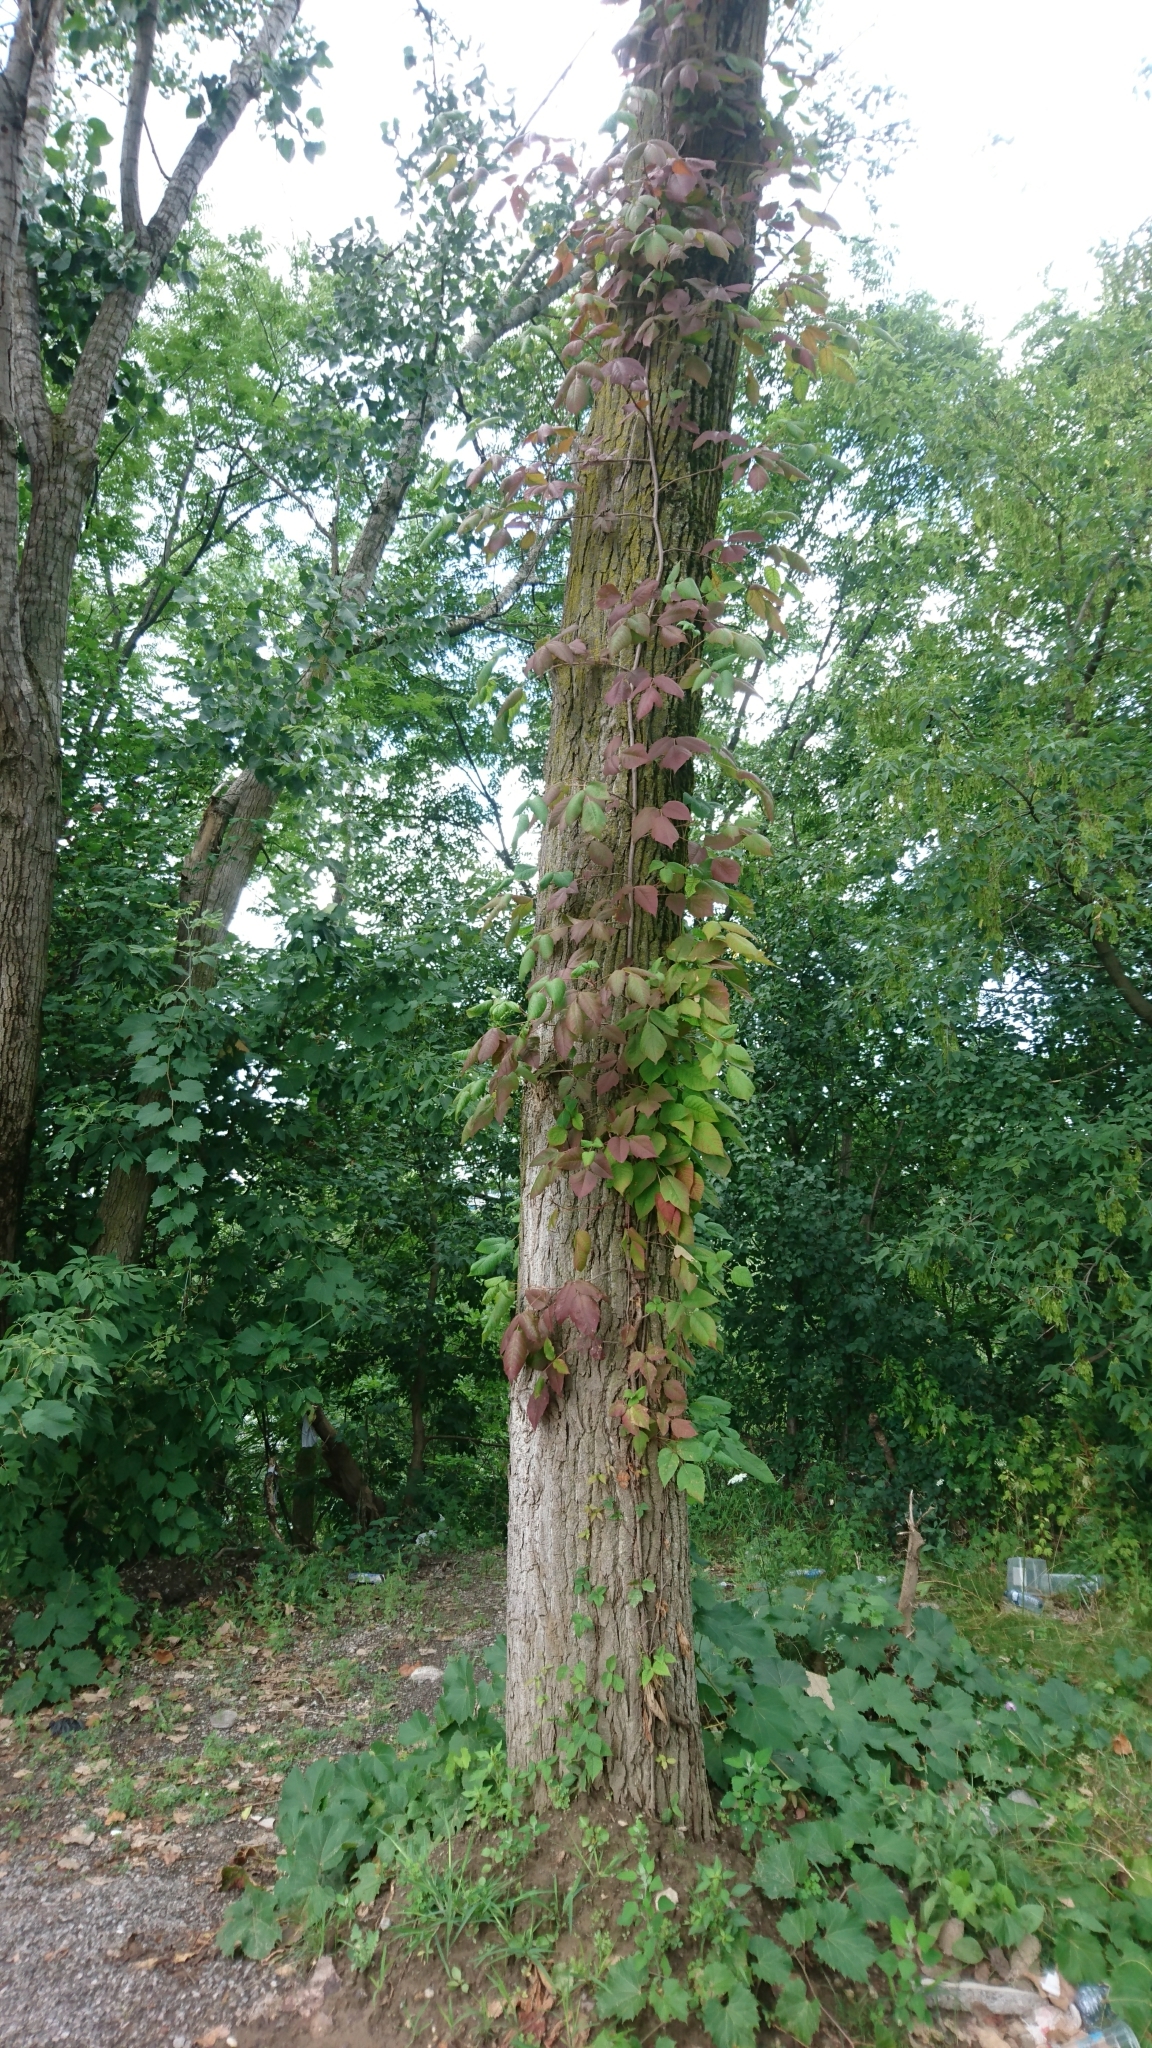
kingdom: Plantae
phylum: Tracheophyta
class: Magnoliopsida
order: Sapindales
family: Anacardiaceae
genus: Toxicodendron
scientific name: Toxicodendron radicans
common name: Poison ivy
